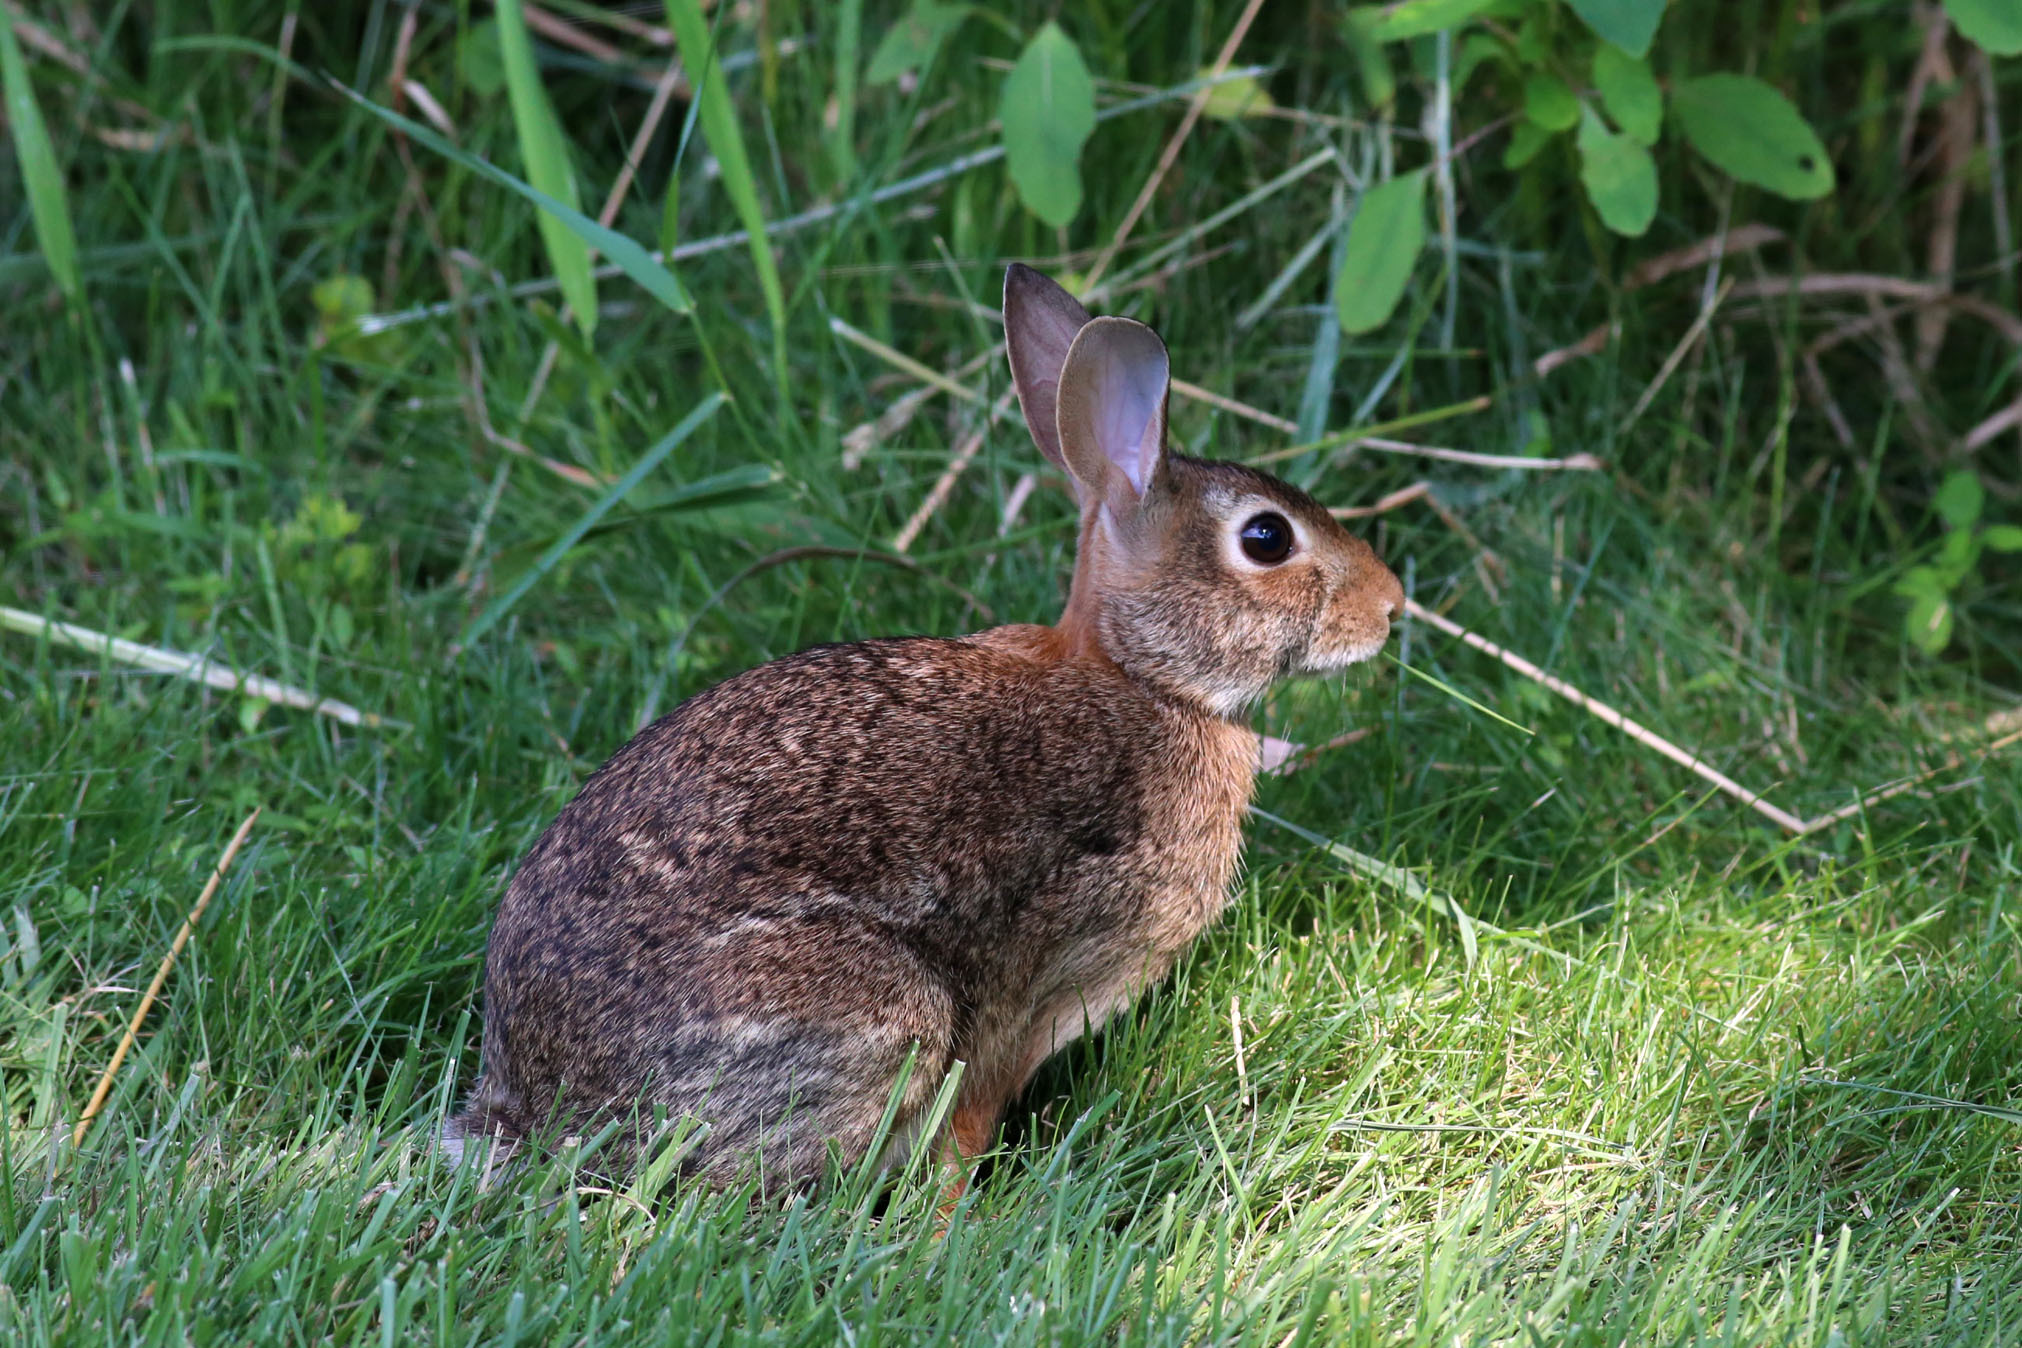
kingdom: Animalia
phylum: Chordata
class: Mammalia
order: Lagomorpha
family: Leporidae
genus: Sylvilagus
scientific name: Sylvilagus floridanus
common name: Eastern cottontail
